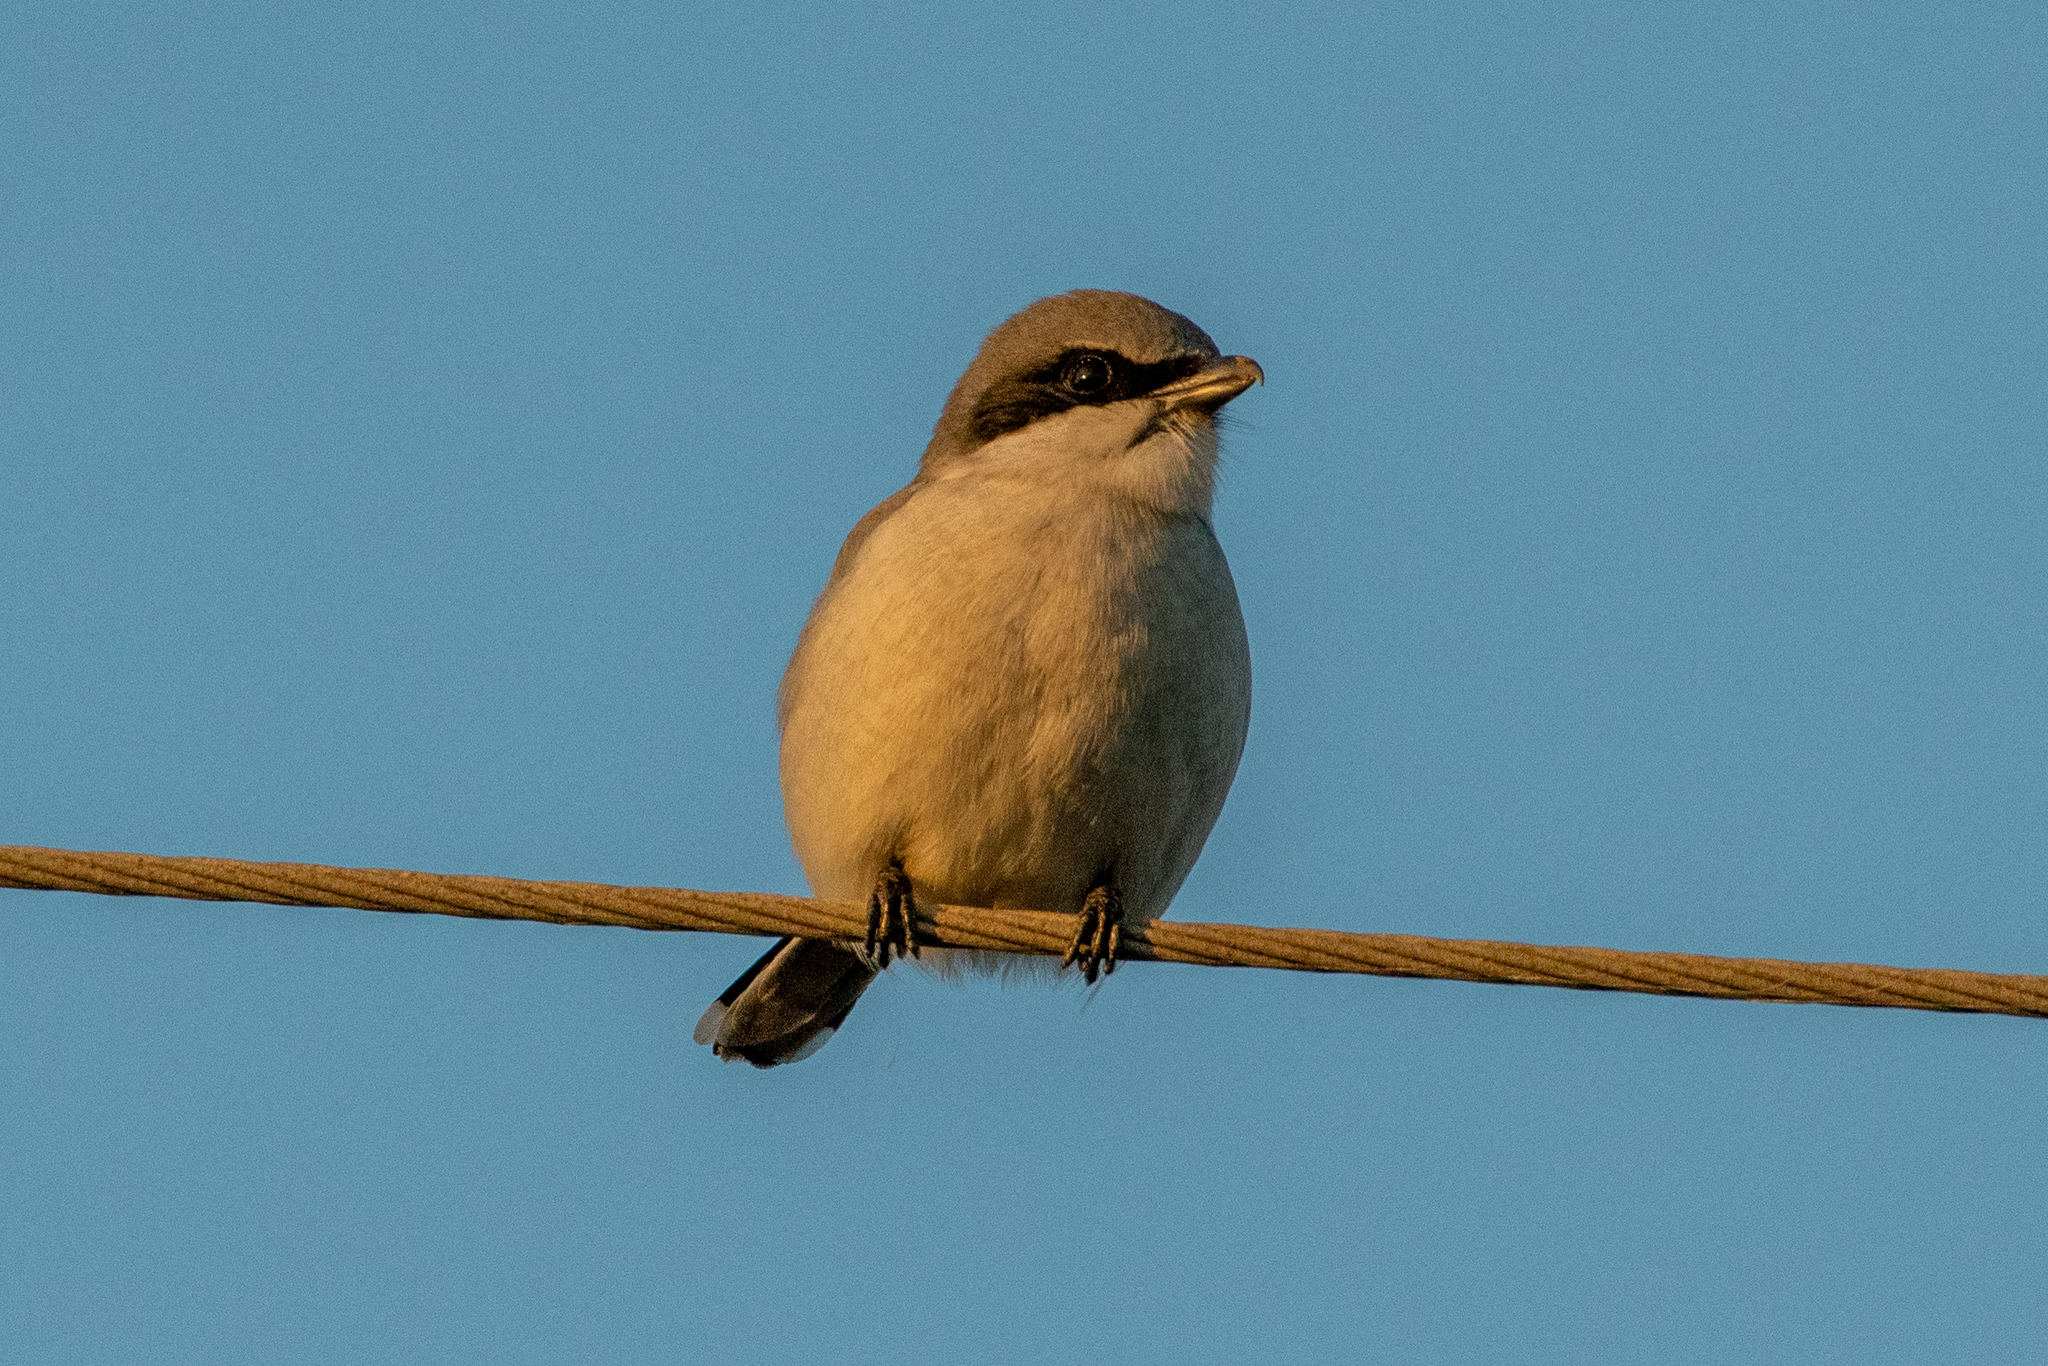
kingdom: Animalia
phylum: Chordata
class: Aves
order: Passeriformes
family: Laniidae
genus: Lanius
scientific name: Lanius ludovicianus
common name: Loggerhead shrike
